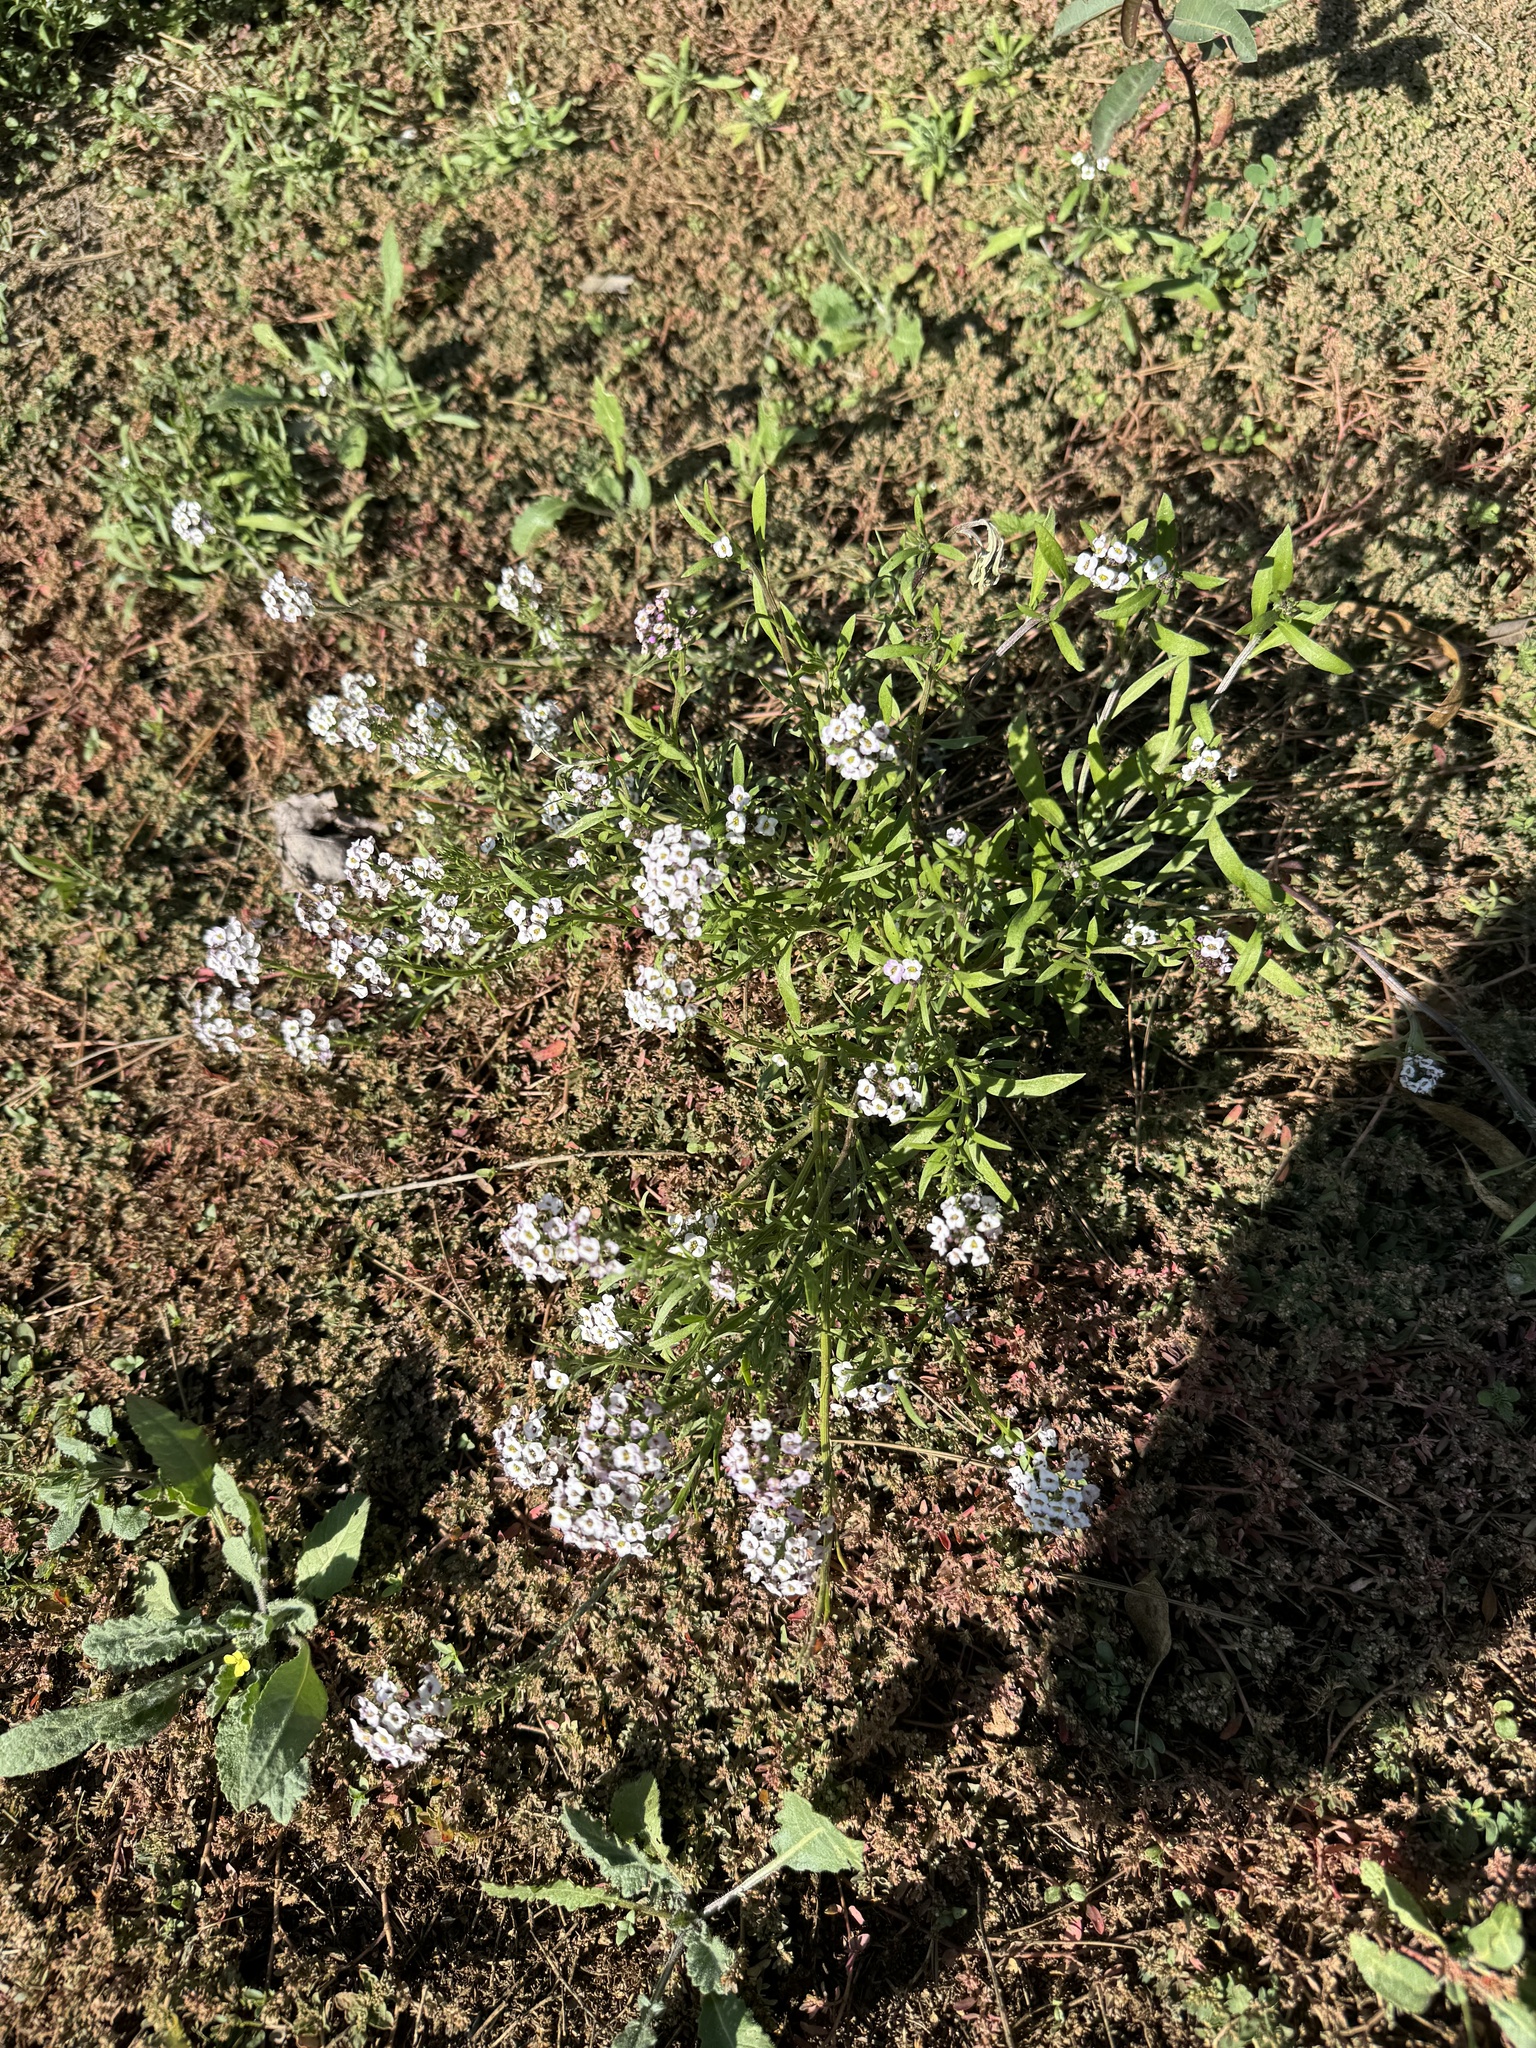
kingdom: Plantae
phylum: Tracheophyta
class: Magnoliopsida
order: Brassicales
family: Brassicaceae
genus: Lobularia
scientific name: Lobularia maritima
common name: Sweet alison
